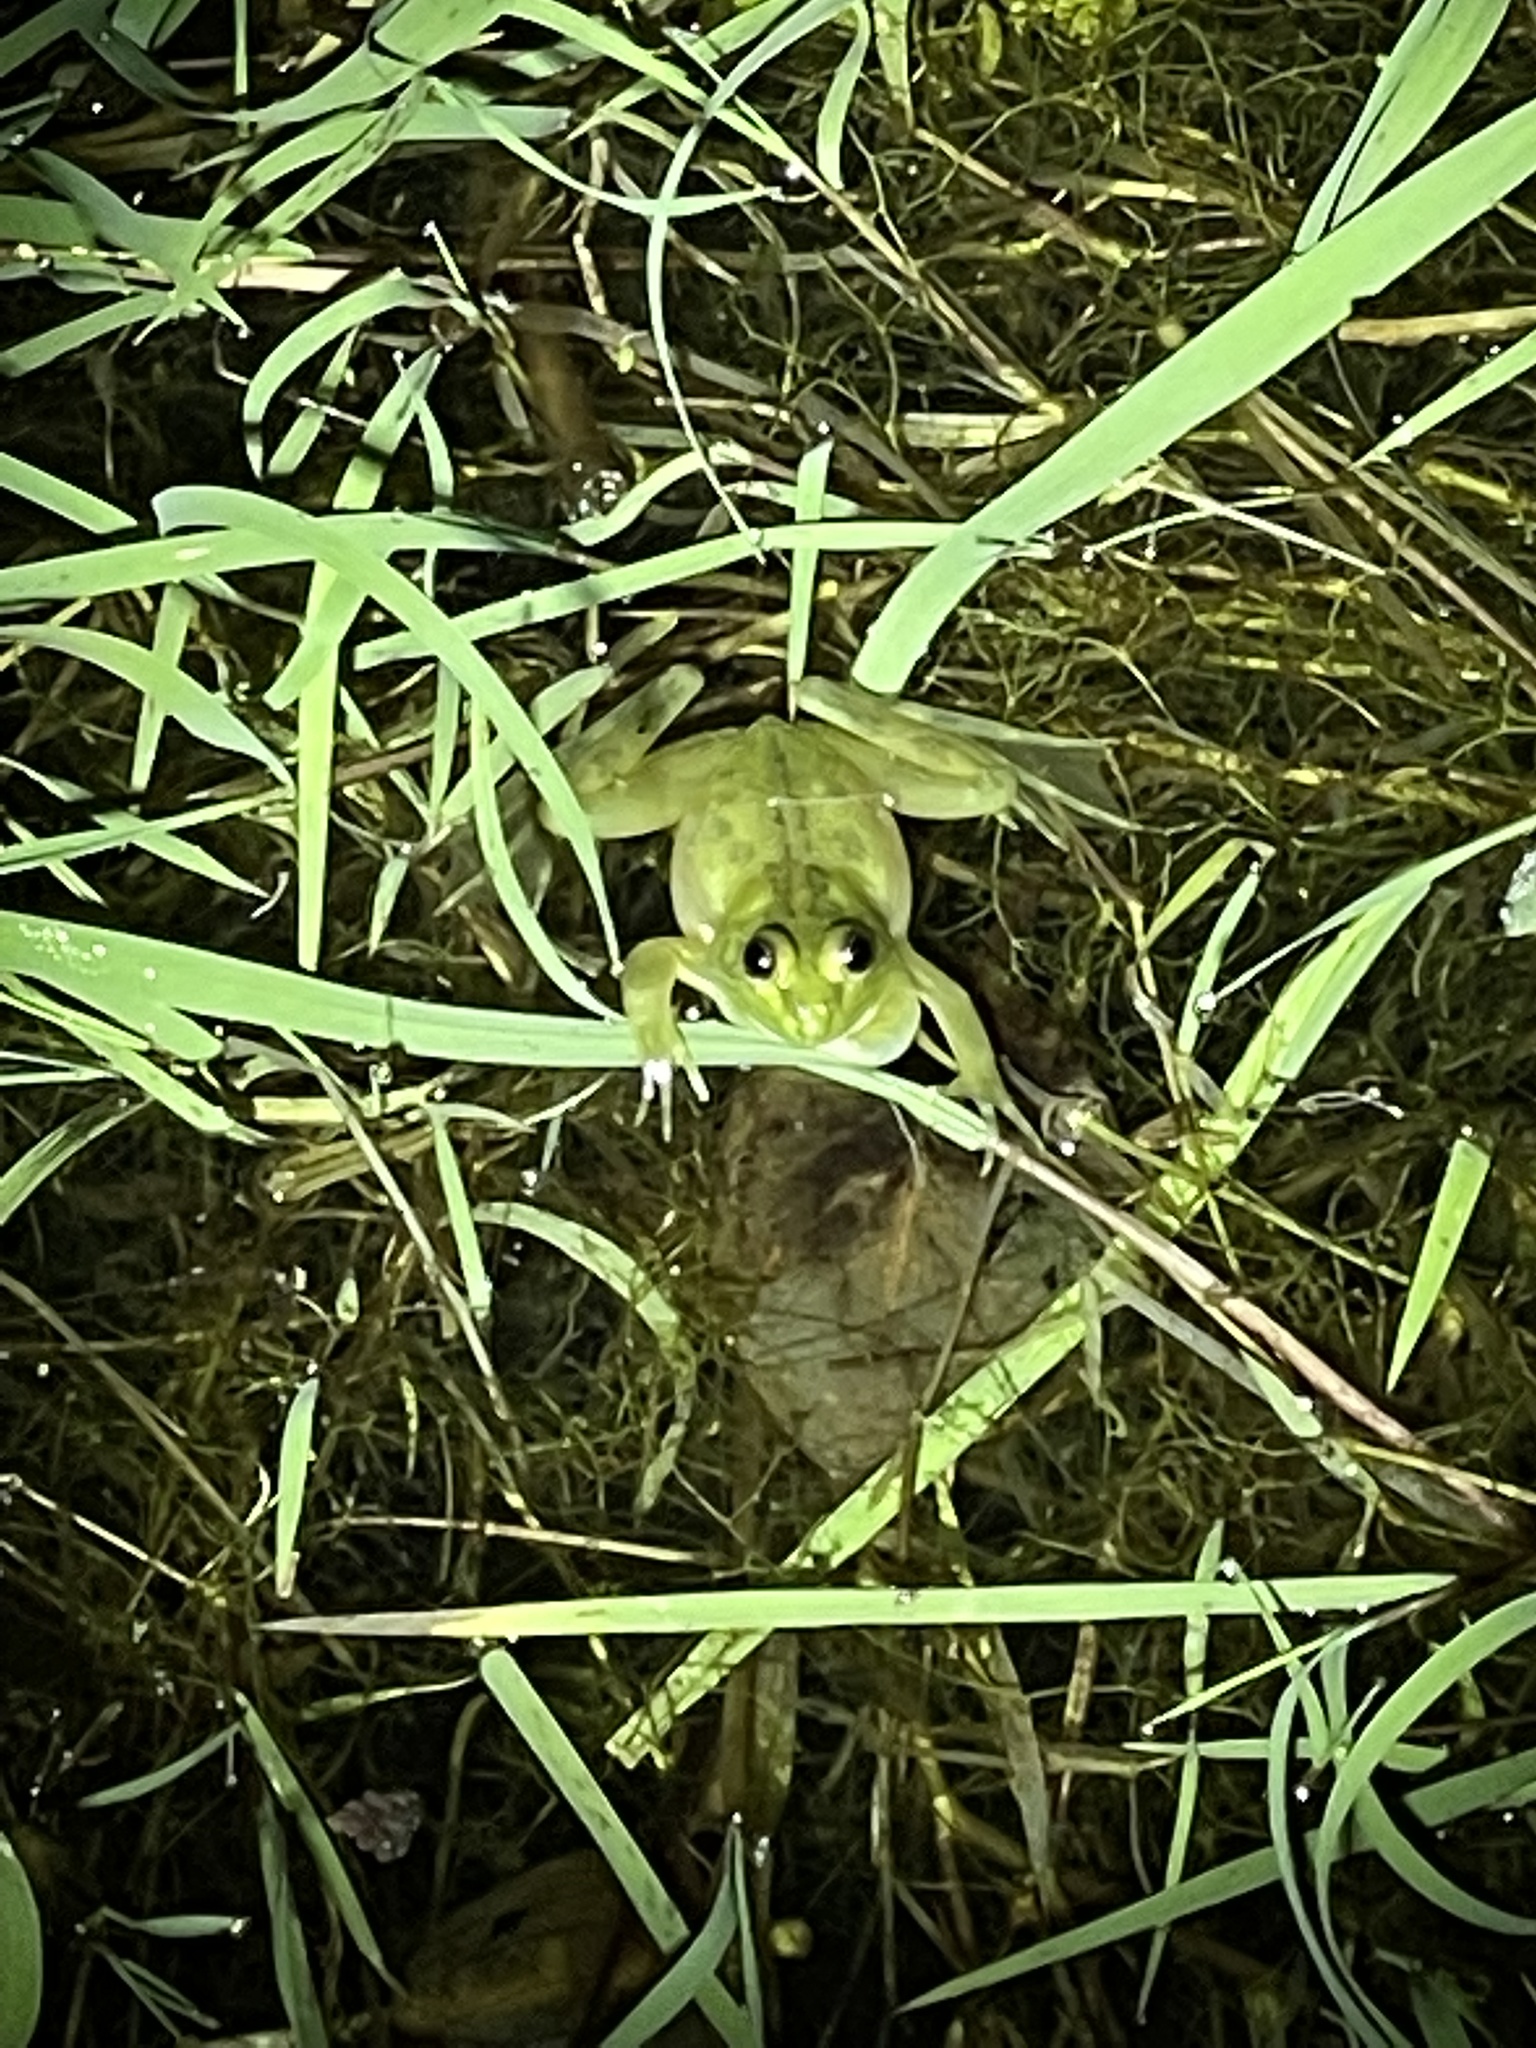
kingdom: Animalia
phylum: Chordata
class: Amphibia
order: Anura
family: Hylidae
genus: Pseudis
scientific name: Pseudis minuta
